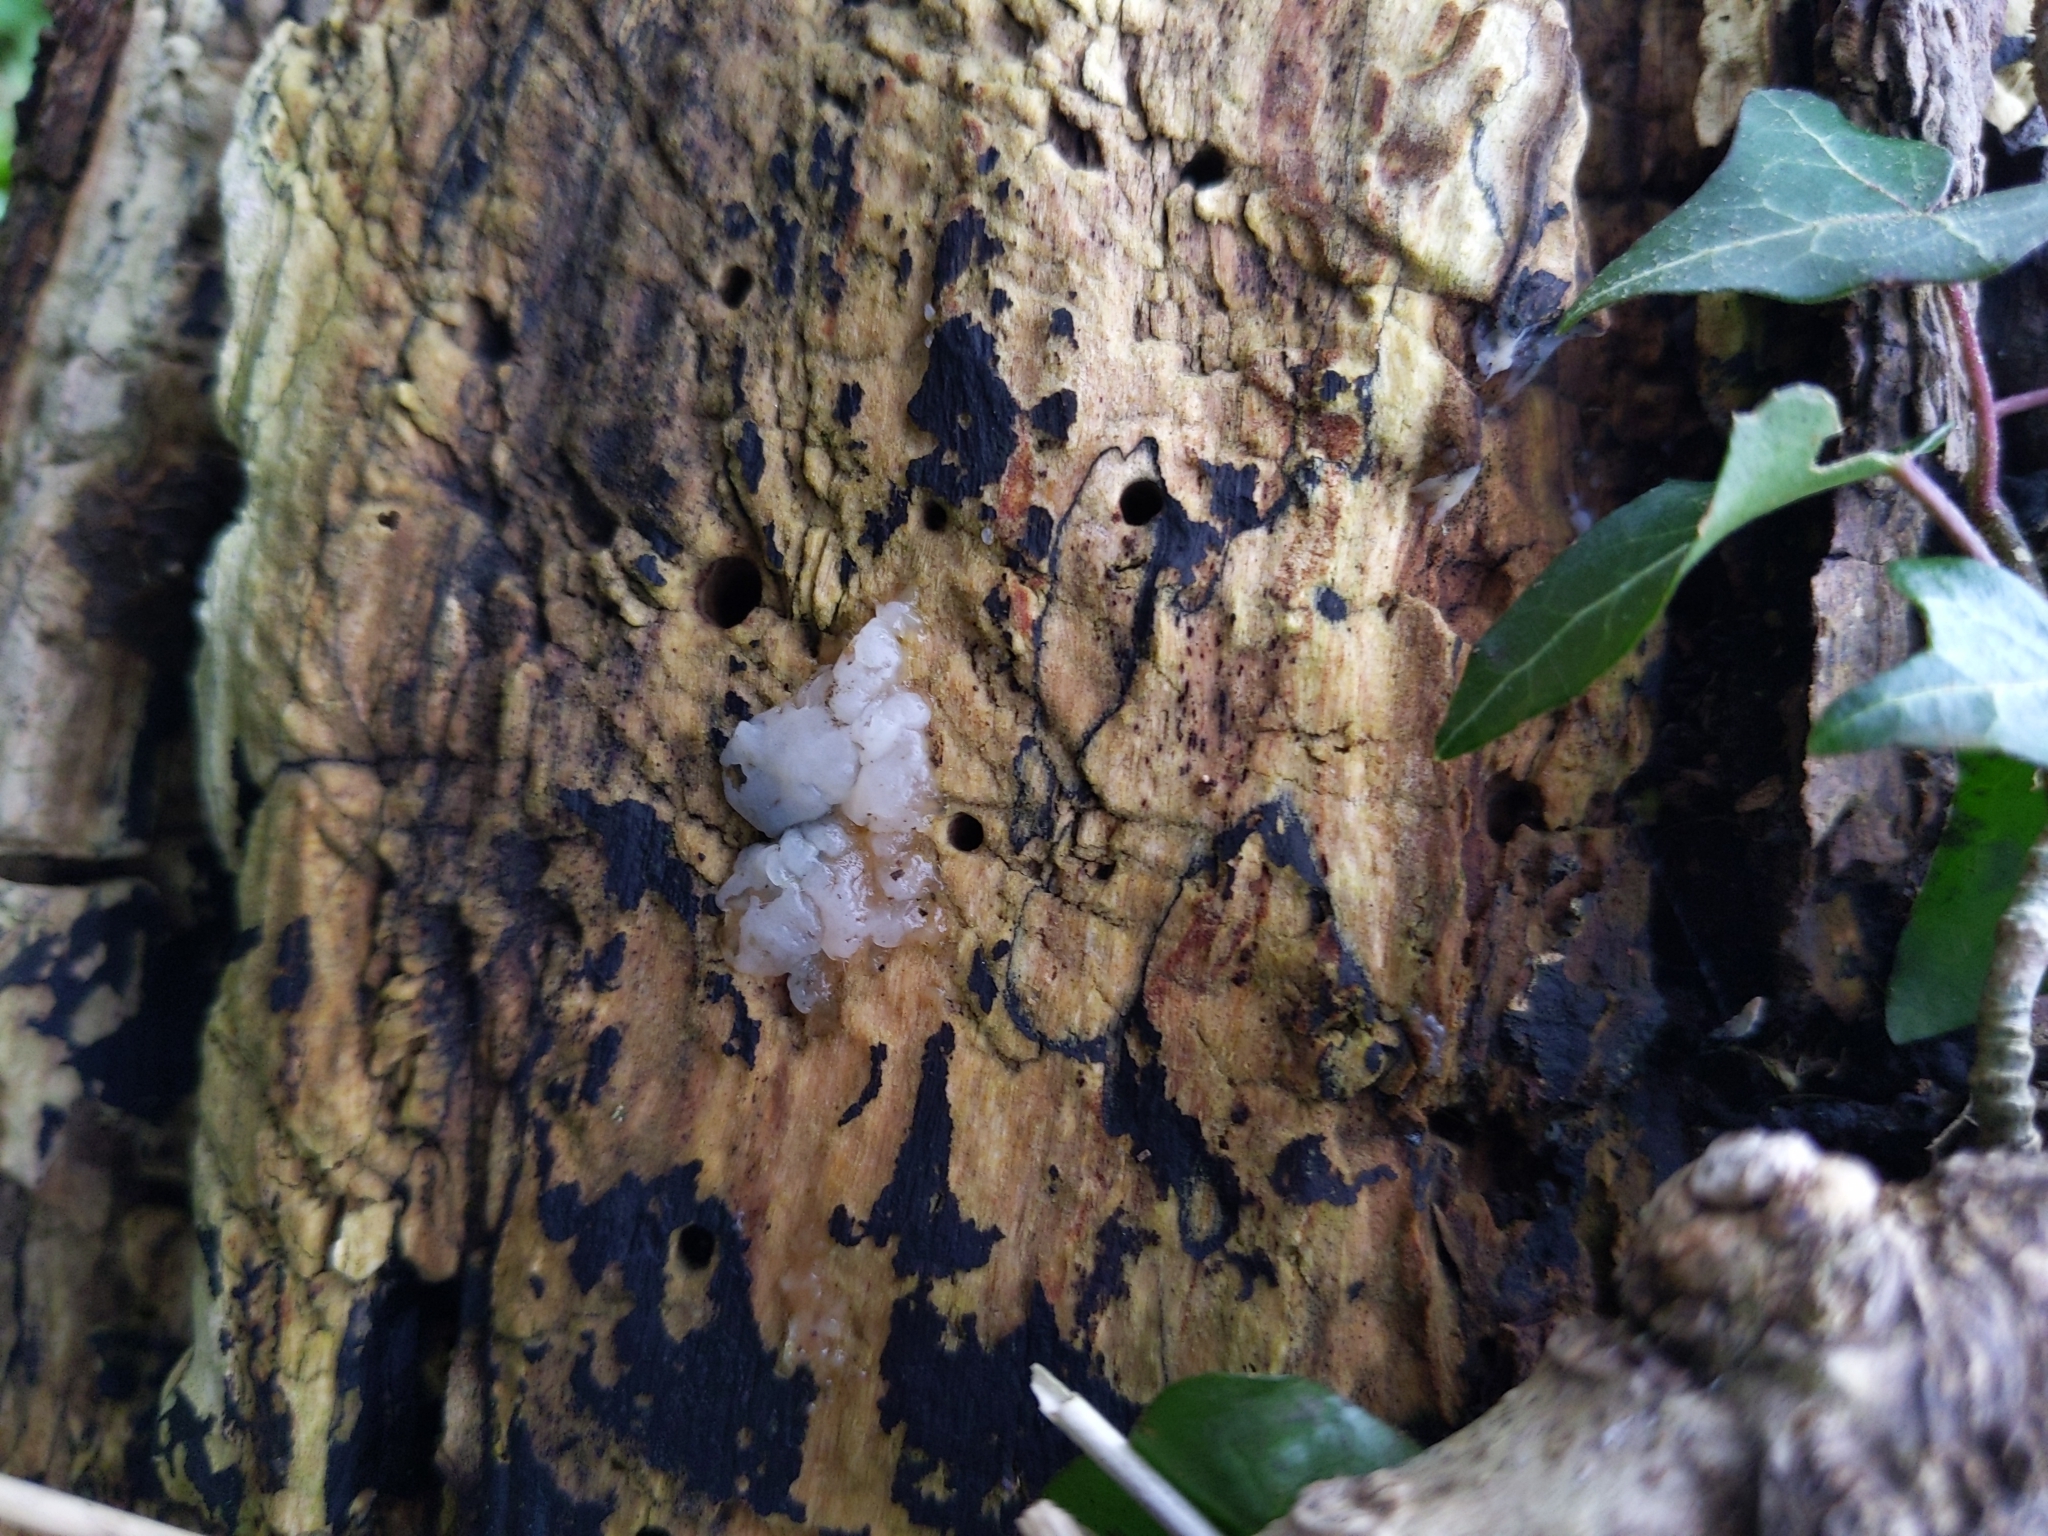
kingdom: Fungi
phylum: Basidiomycota
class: Agaricomycetes
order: Auriculariales
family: Auriculariaceae
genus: Exidia
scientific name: Exidia thuretiana
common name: White brain
